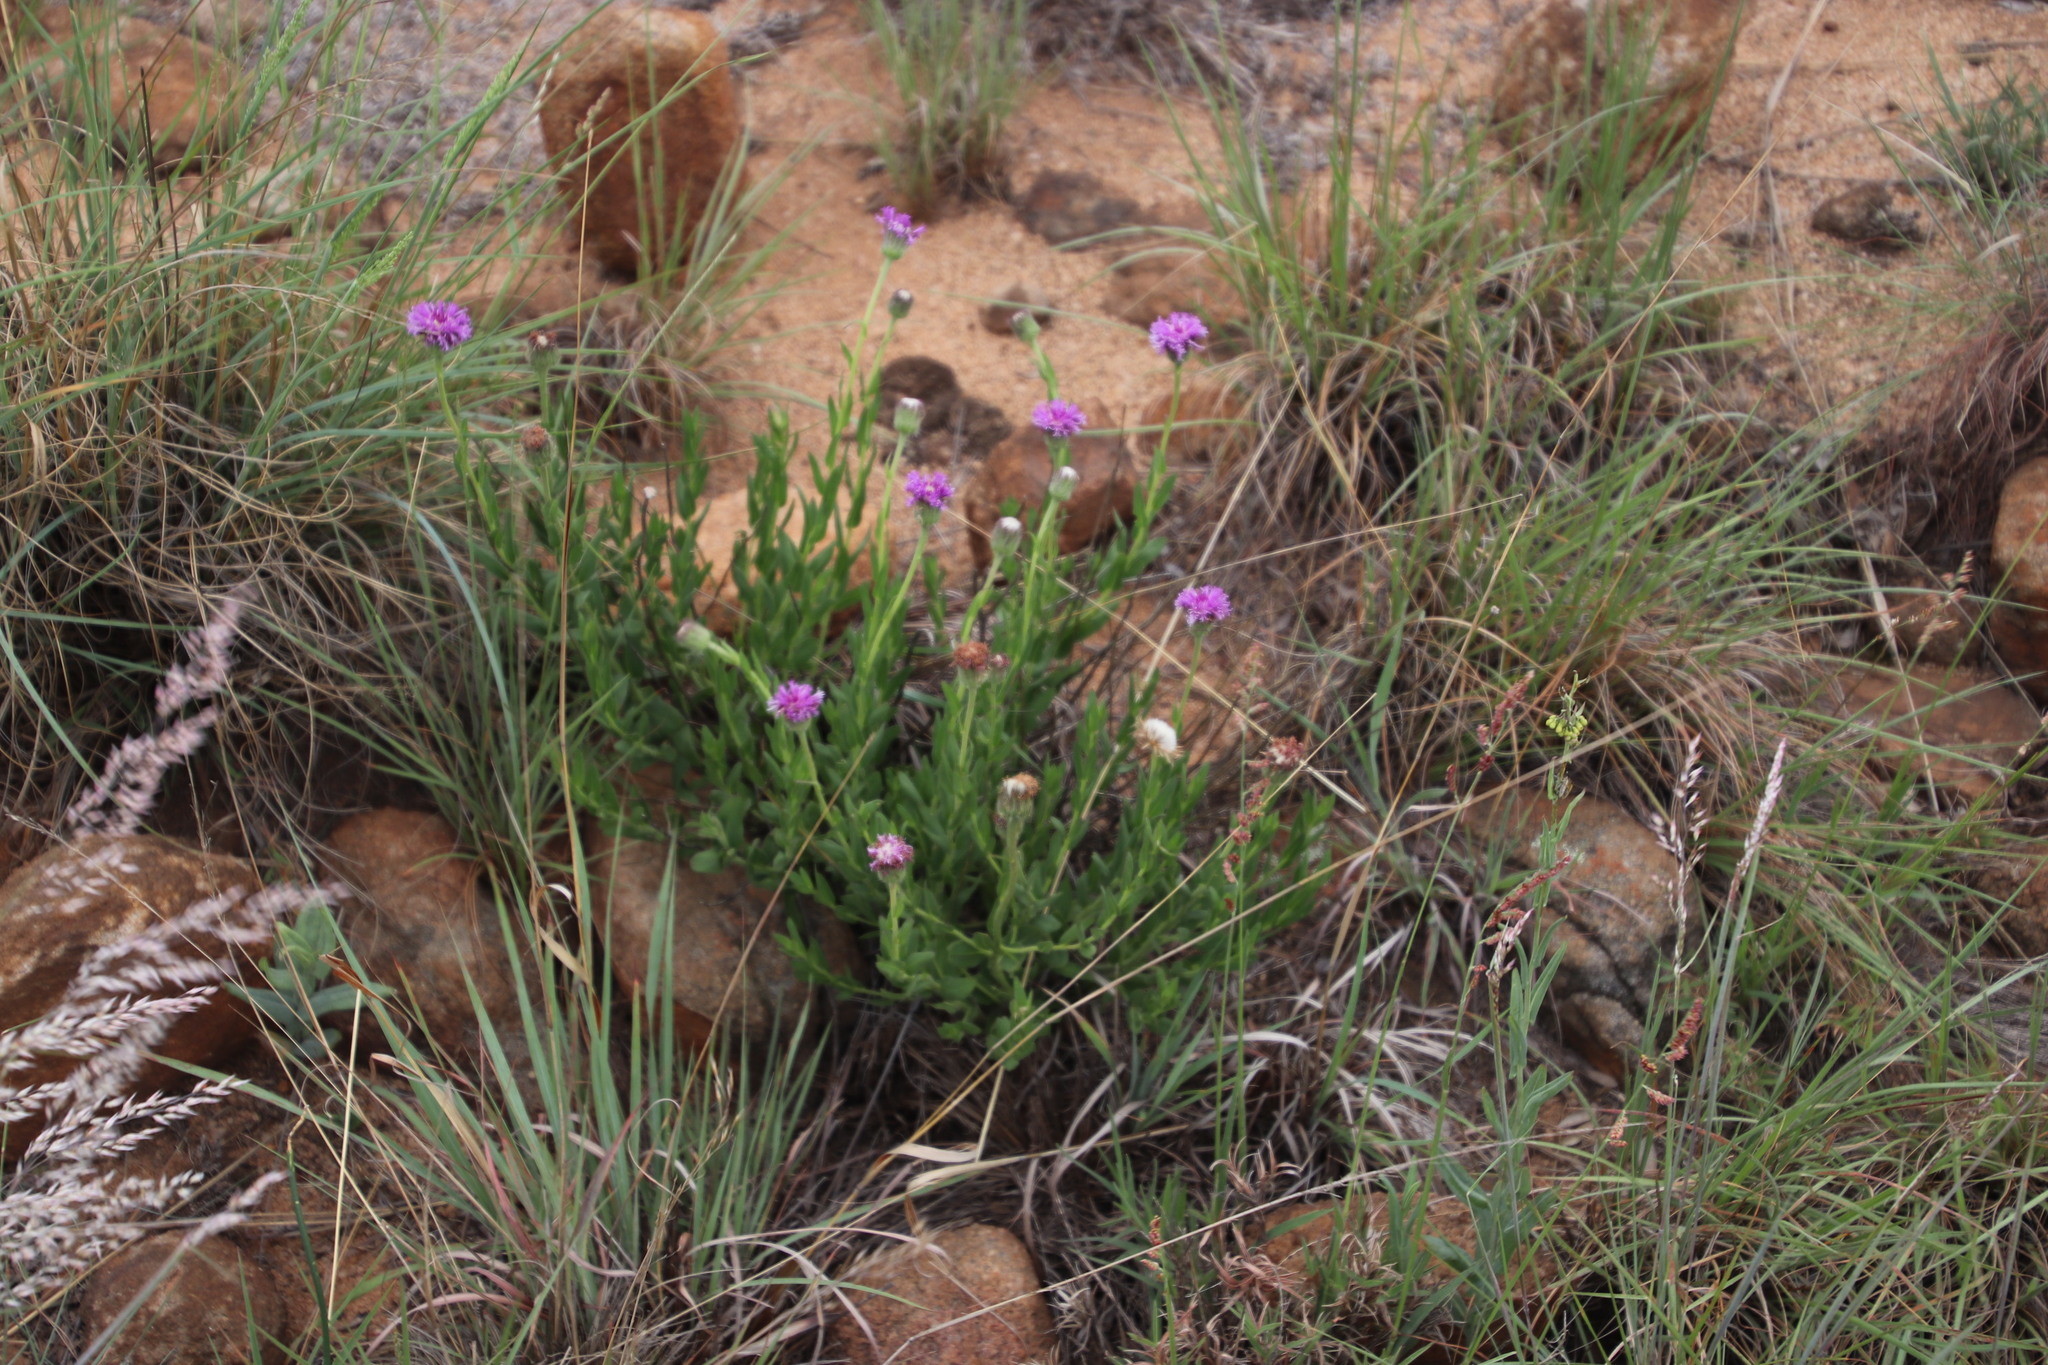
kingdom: Plantae
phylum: Tracheophyta
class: Magnoliopsida
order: Asterales
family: Asteraceae
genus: Pseudopegolettia
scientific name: Pseudopegolettia tenella
